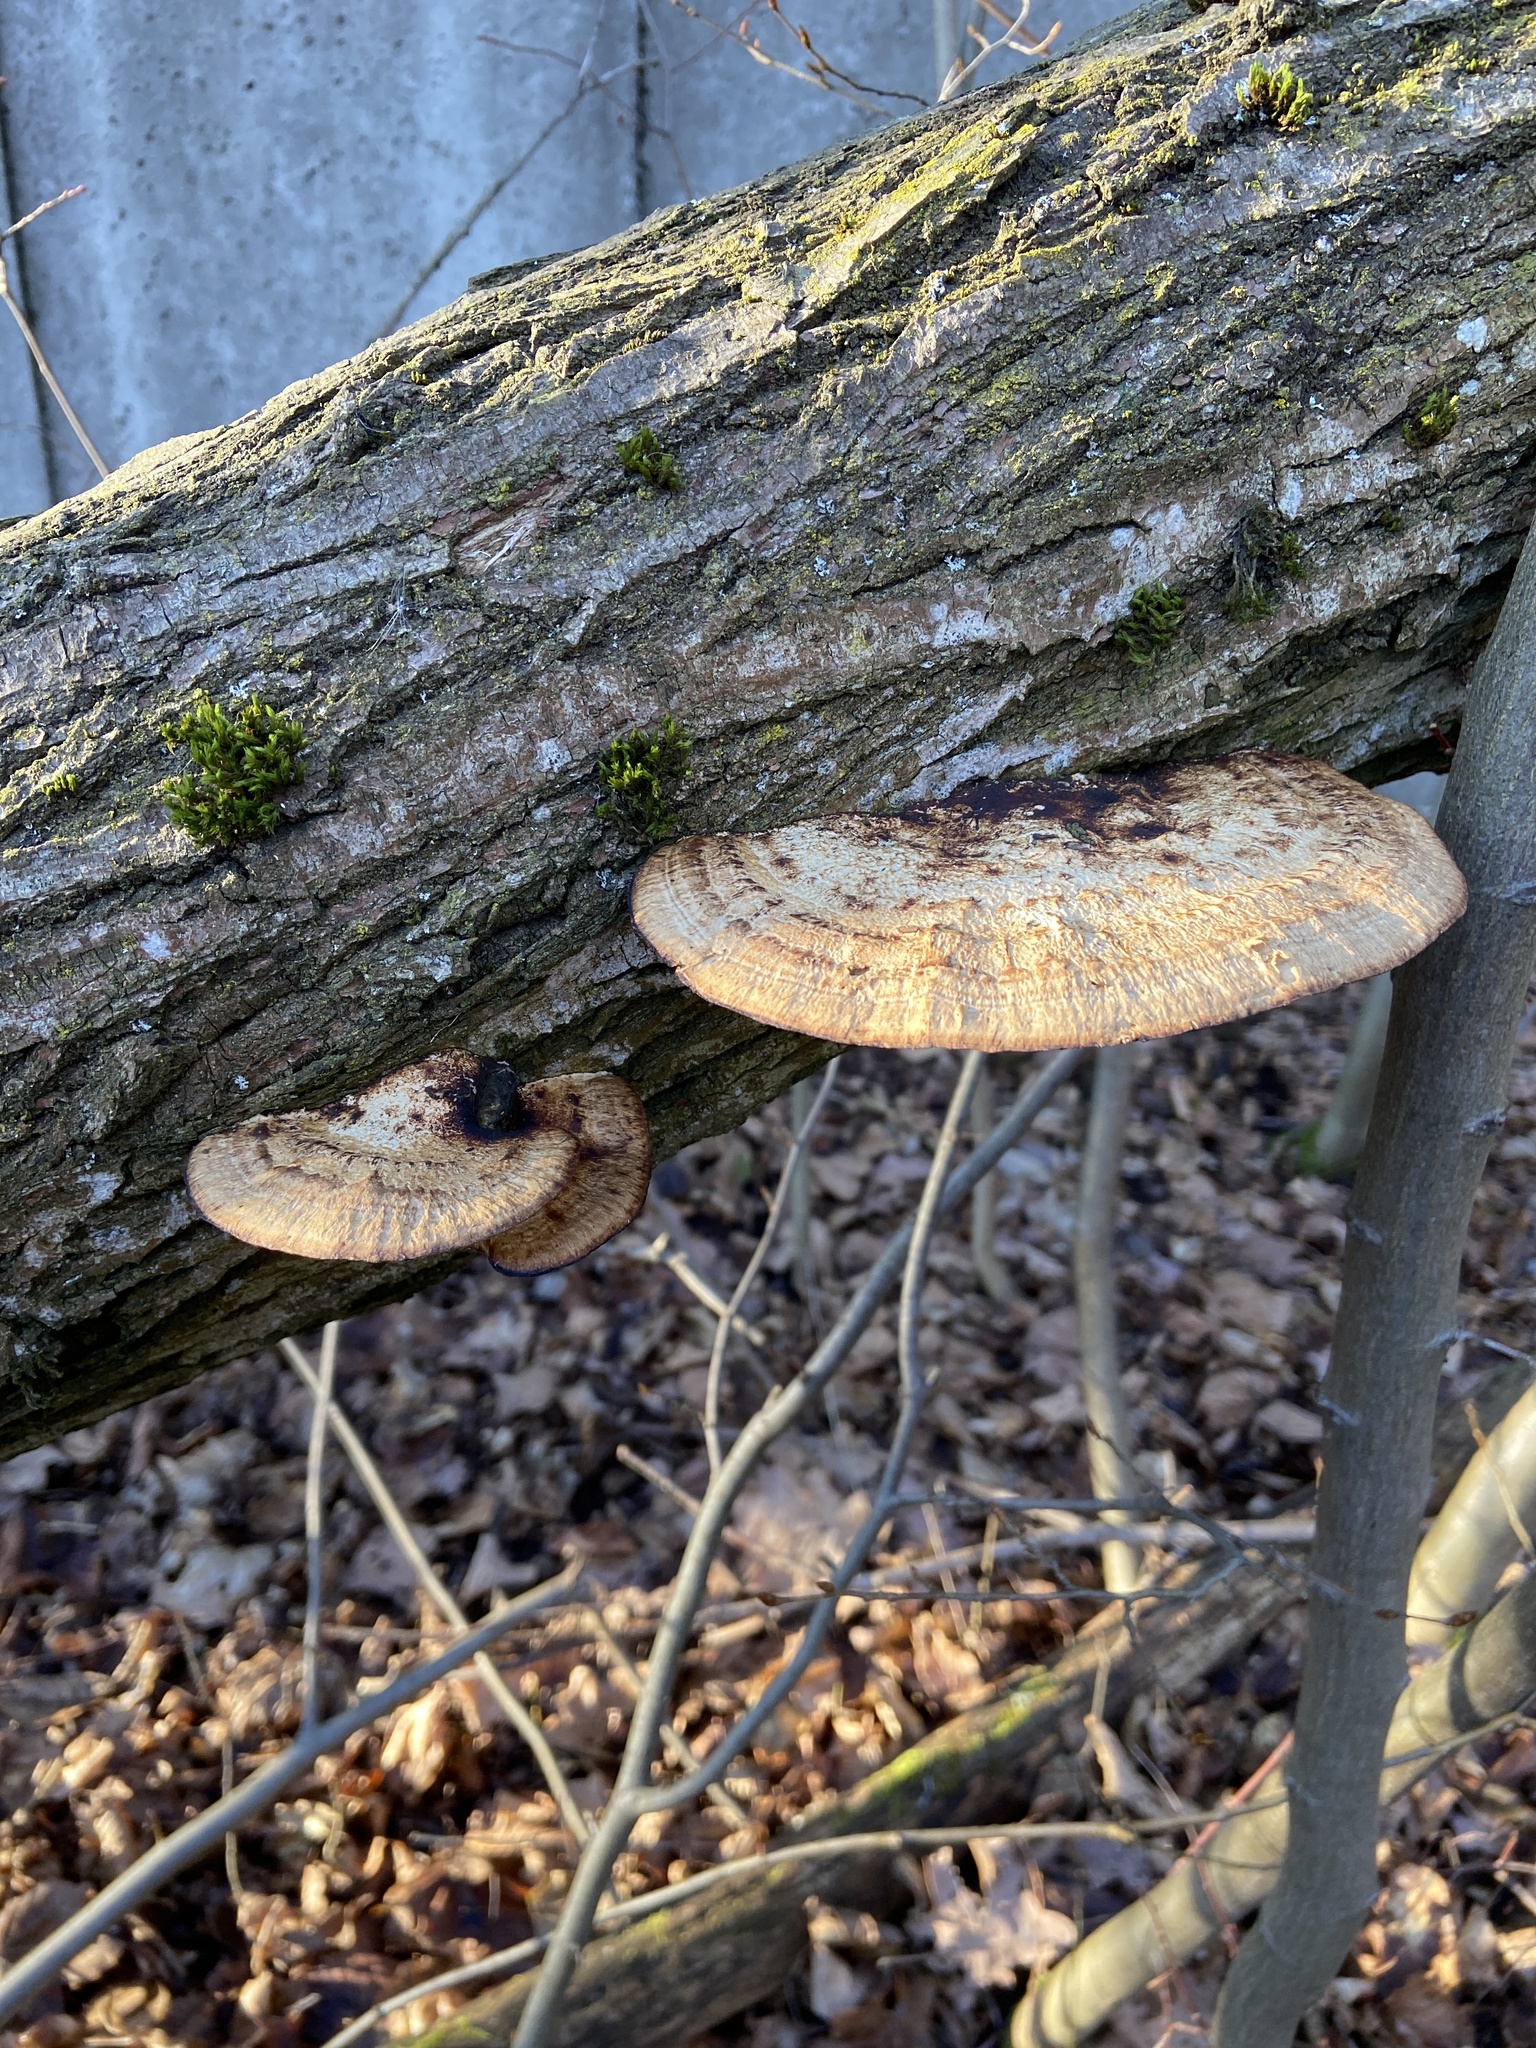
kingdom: Fungi
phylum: Basidiomycota
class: Agaricomycetes
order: Polyporales
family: Polyporaceae
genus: Daedaleopsis
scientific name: Daedaleopsis confragosa
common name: Blushing bracket
